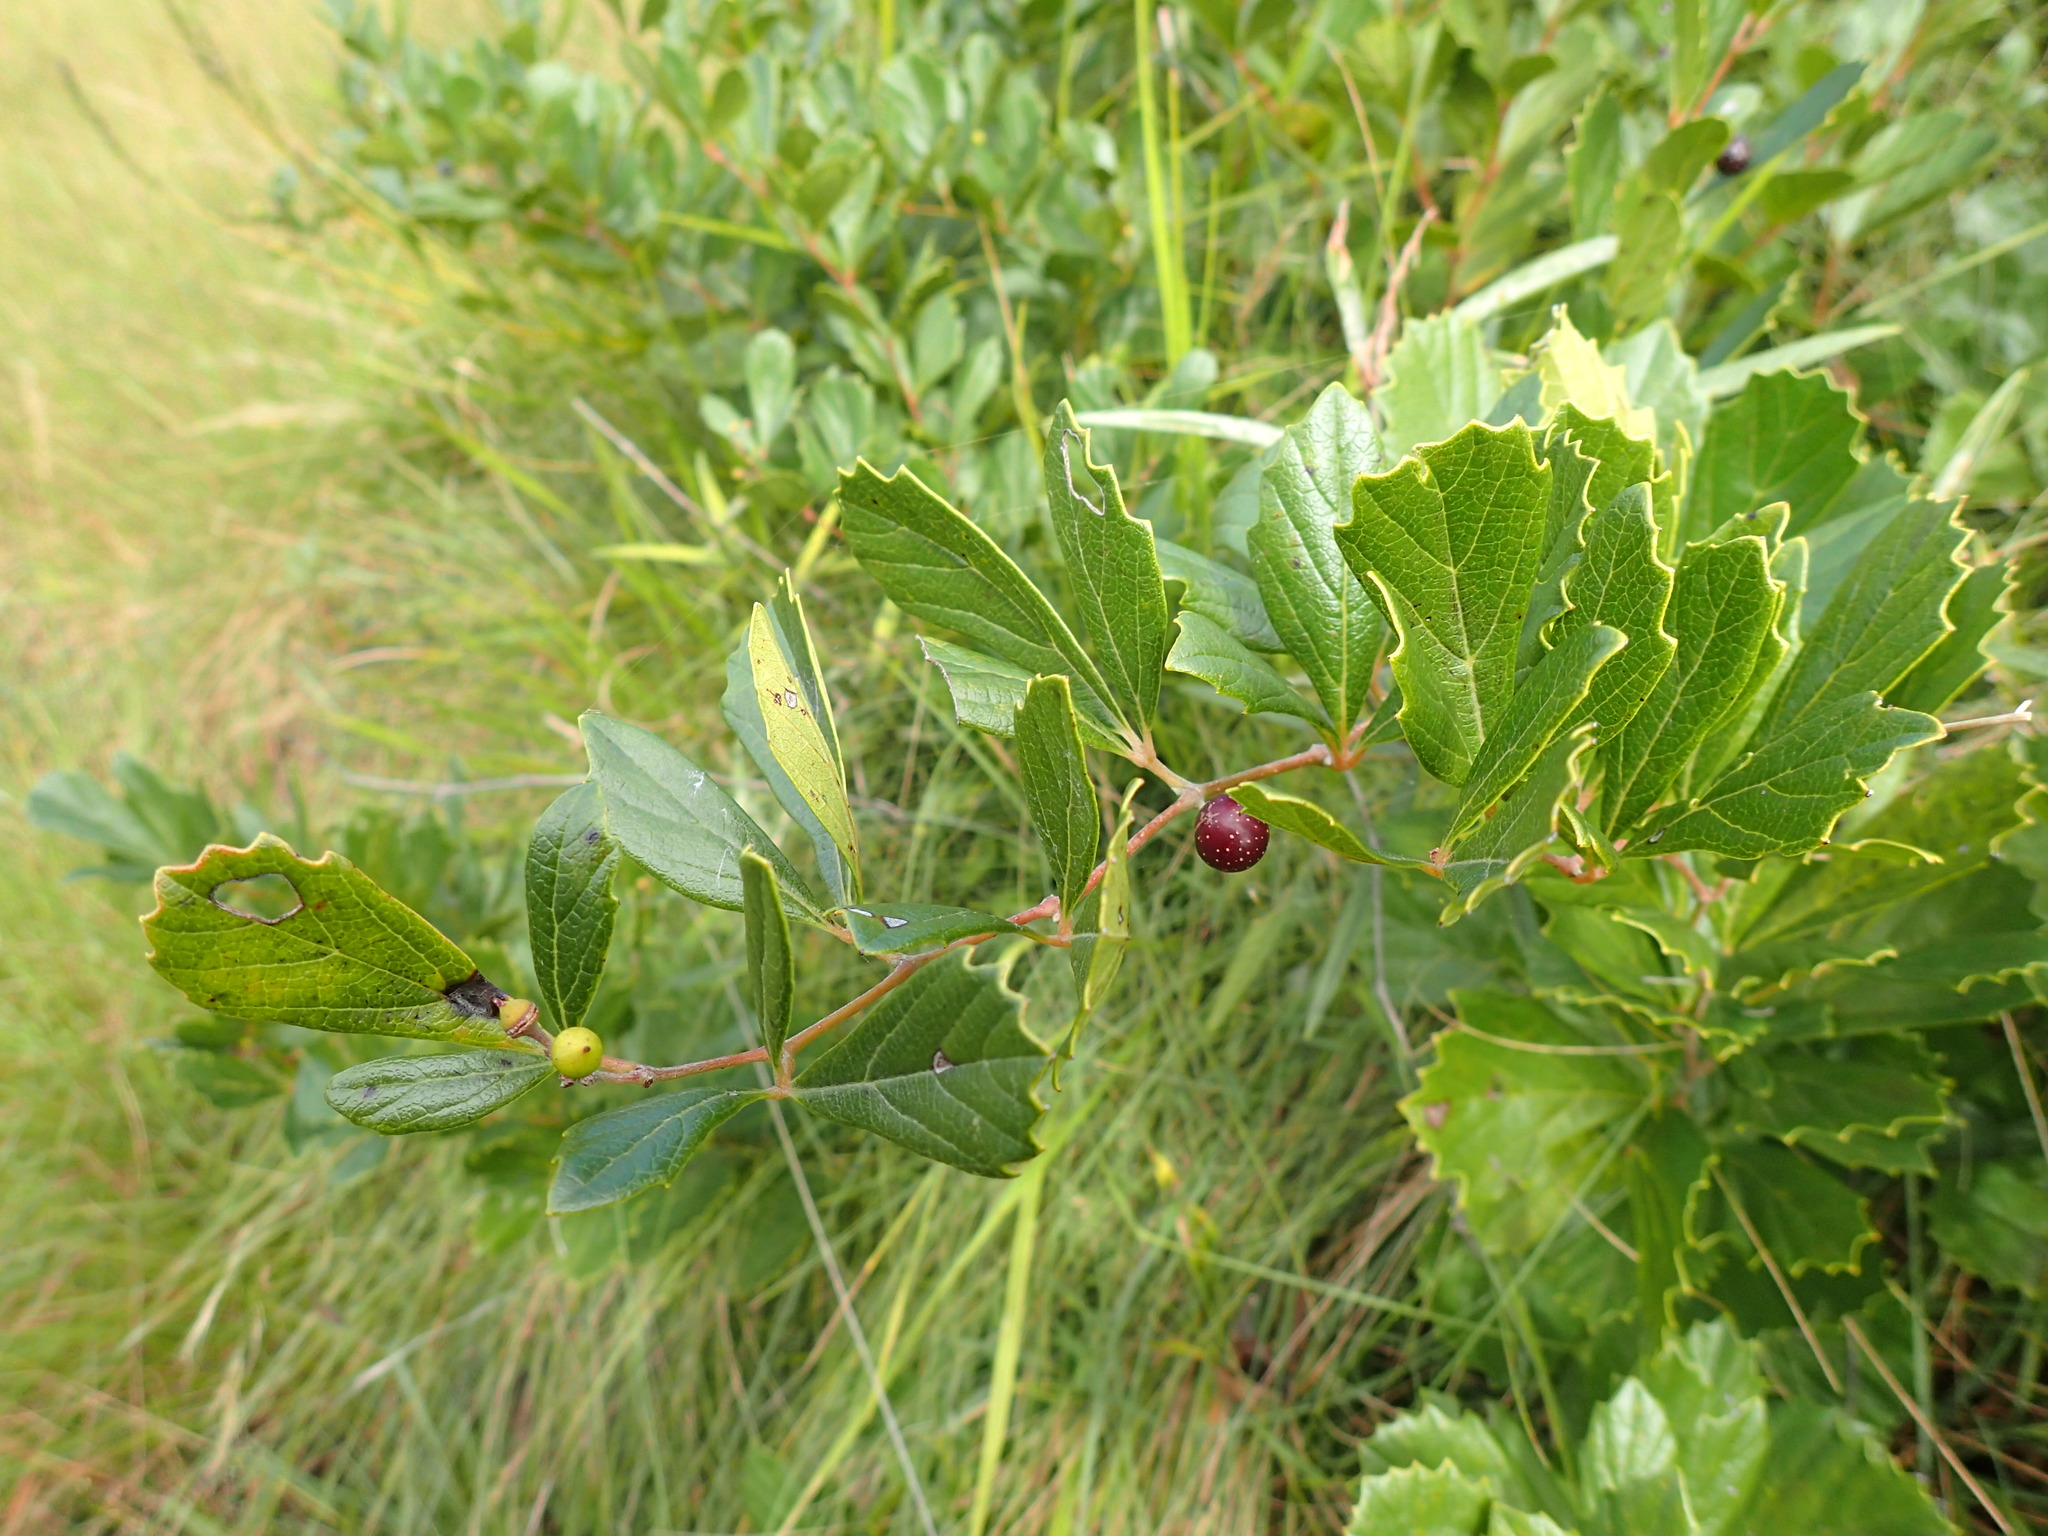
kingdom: Plantae
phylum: Tracheophyta
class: Magnoliopsida
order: Vitales
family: Vitaceae
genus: Rhoicissus
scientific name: Rhoicissus tridentata
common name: Common forest grape
